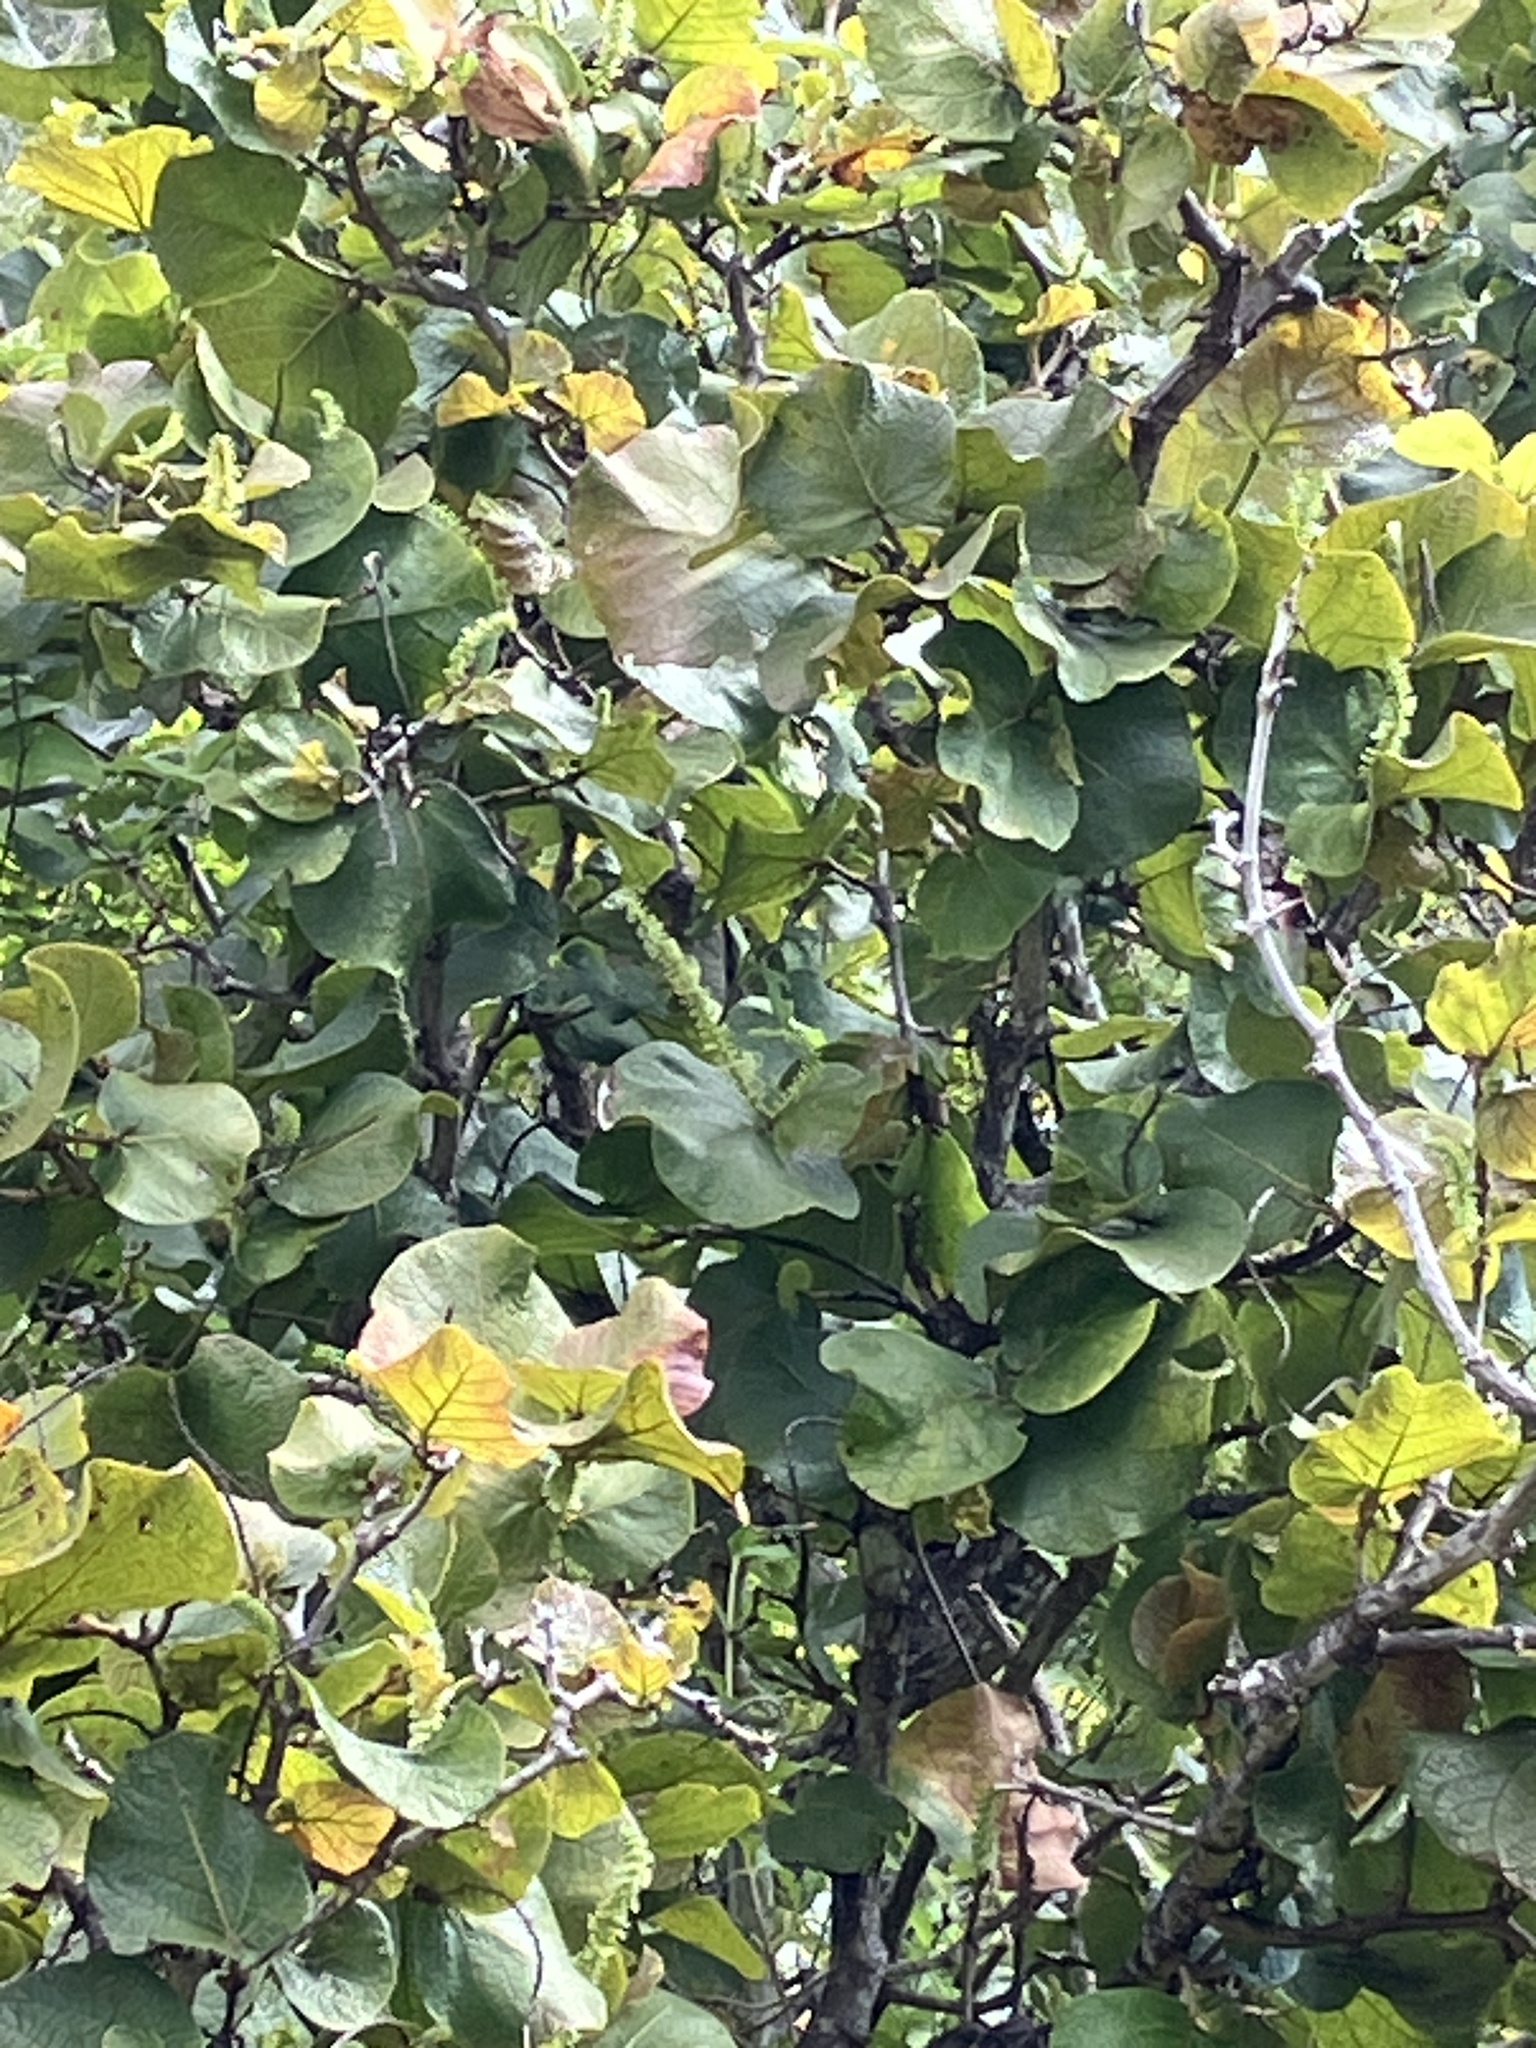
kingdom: Plantae
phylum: Tracheophyta
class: Magnoliopsida
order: Caryophyllales
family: Polygonaceae
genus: Coccoloba
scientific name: Coccoloba pubescens
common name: Mountain-grape
